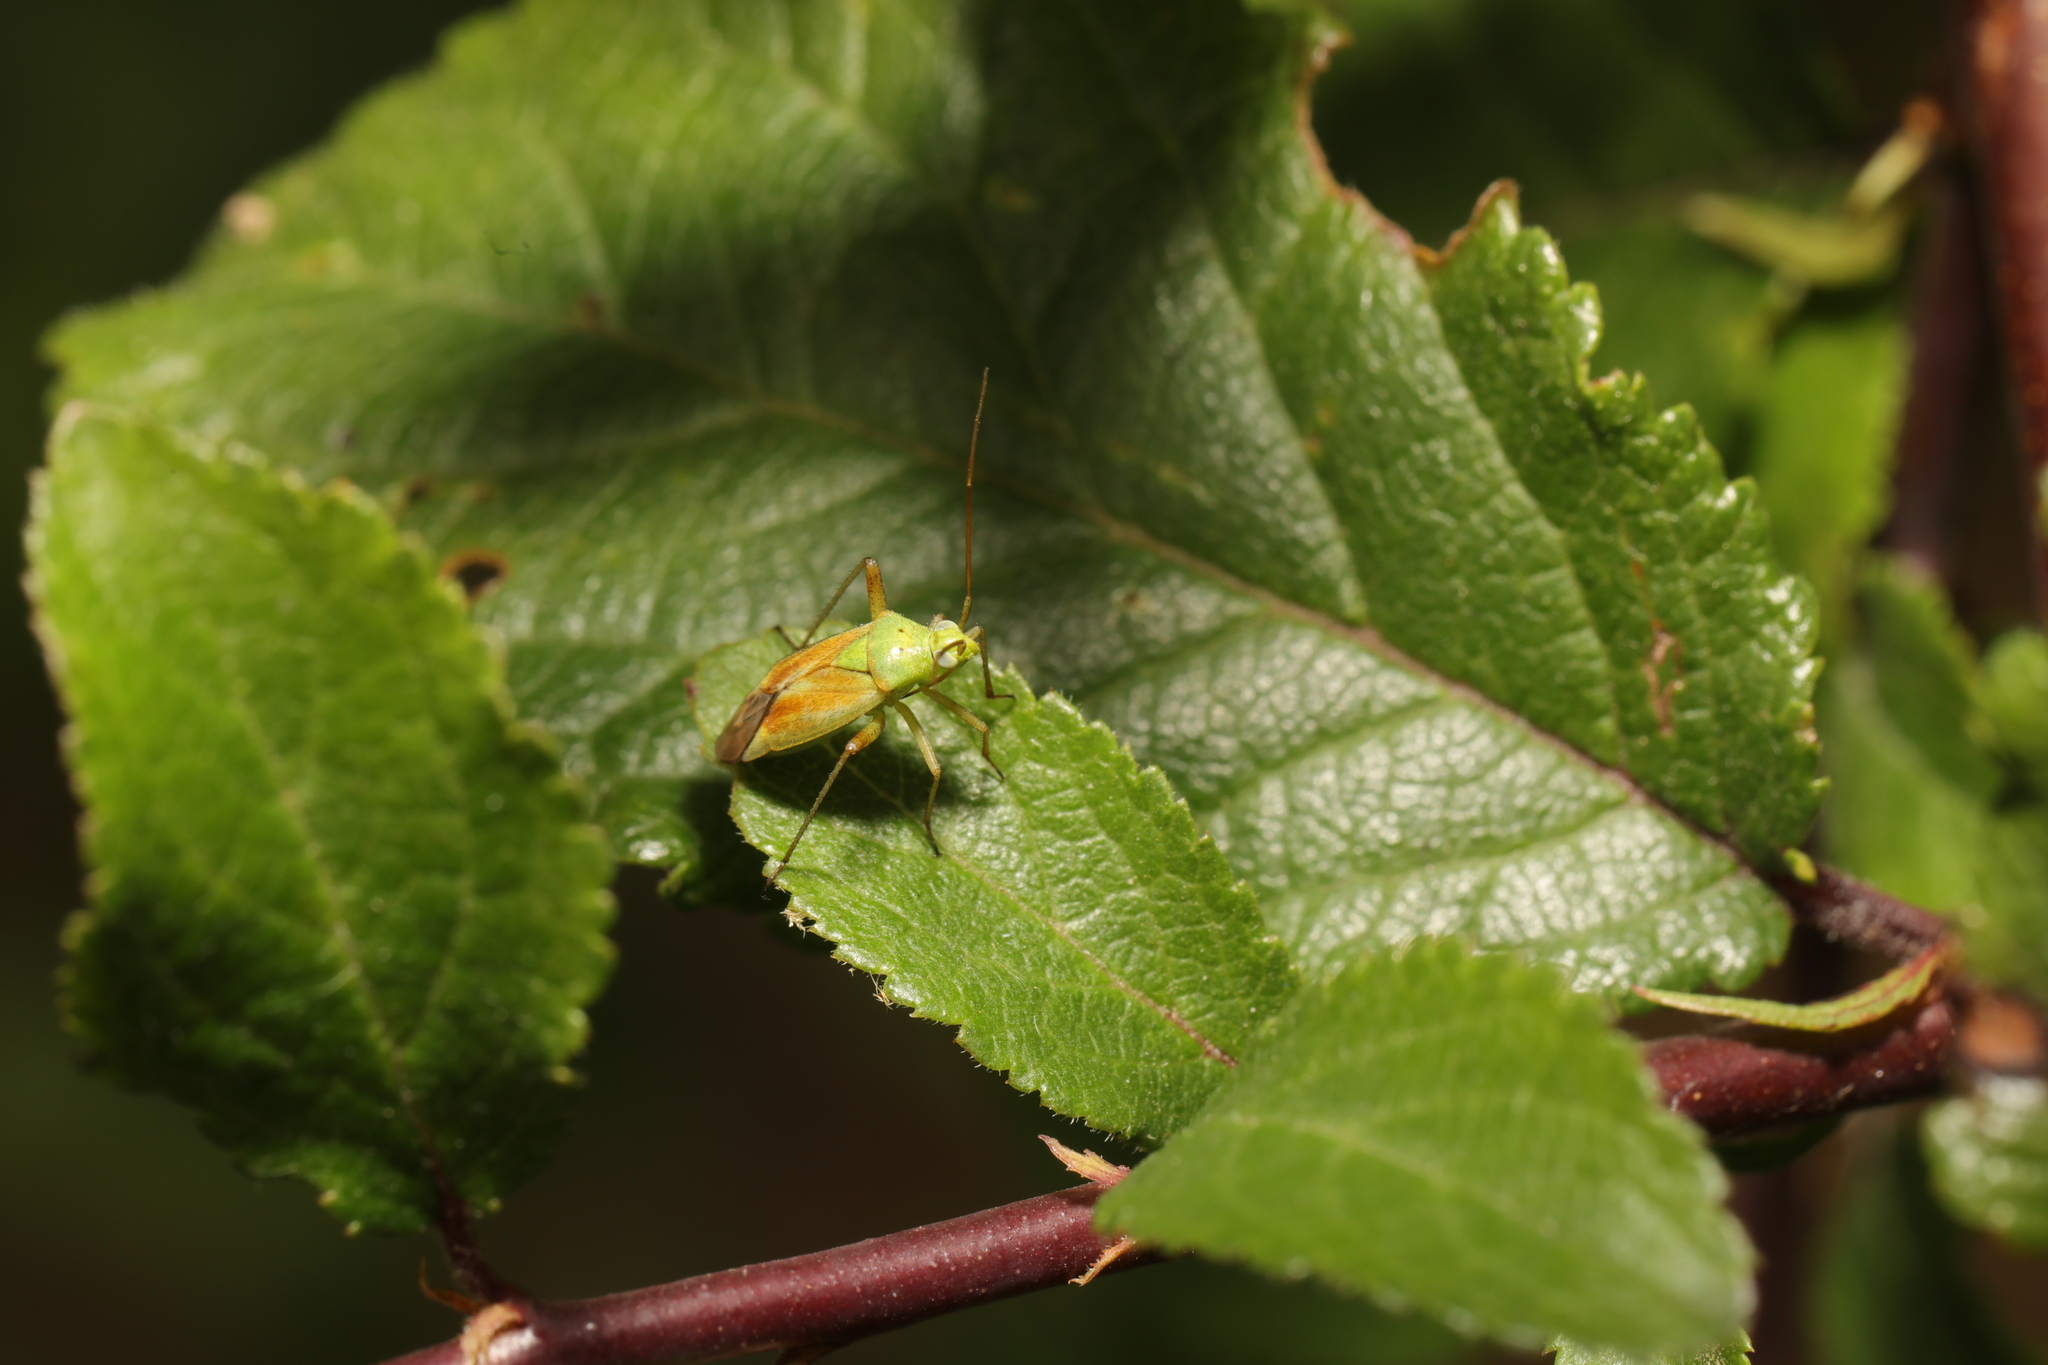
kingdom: Animalia
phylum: Arthropoda
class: Insecta
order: Hemiptera
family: Miridae
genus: Closterotomus
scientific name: Closterotomus norvegicus
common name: Plant bug
